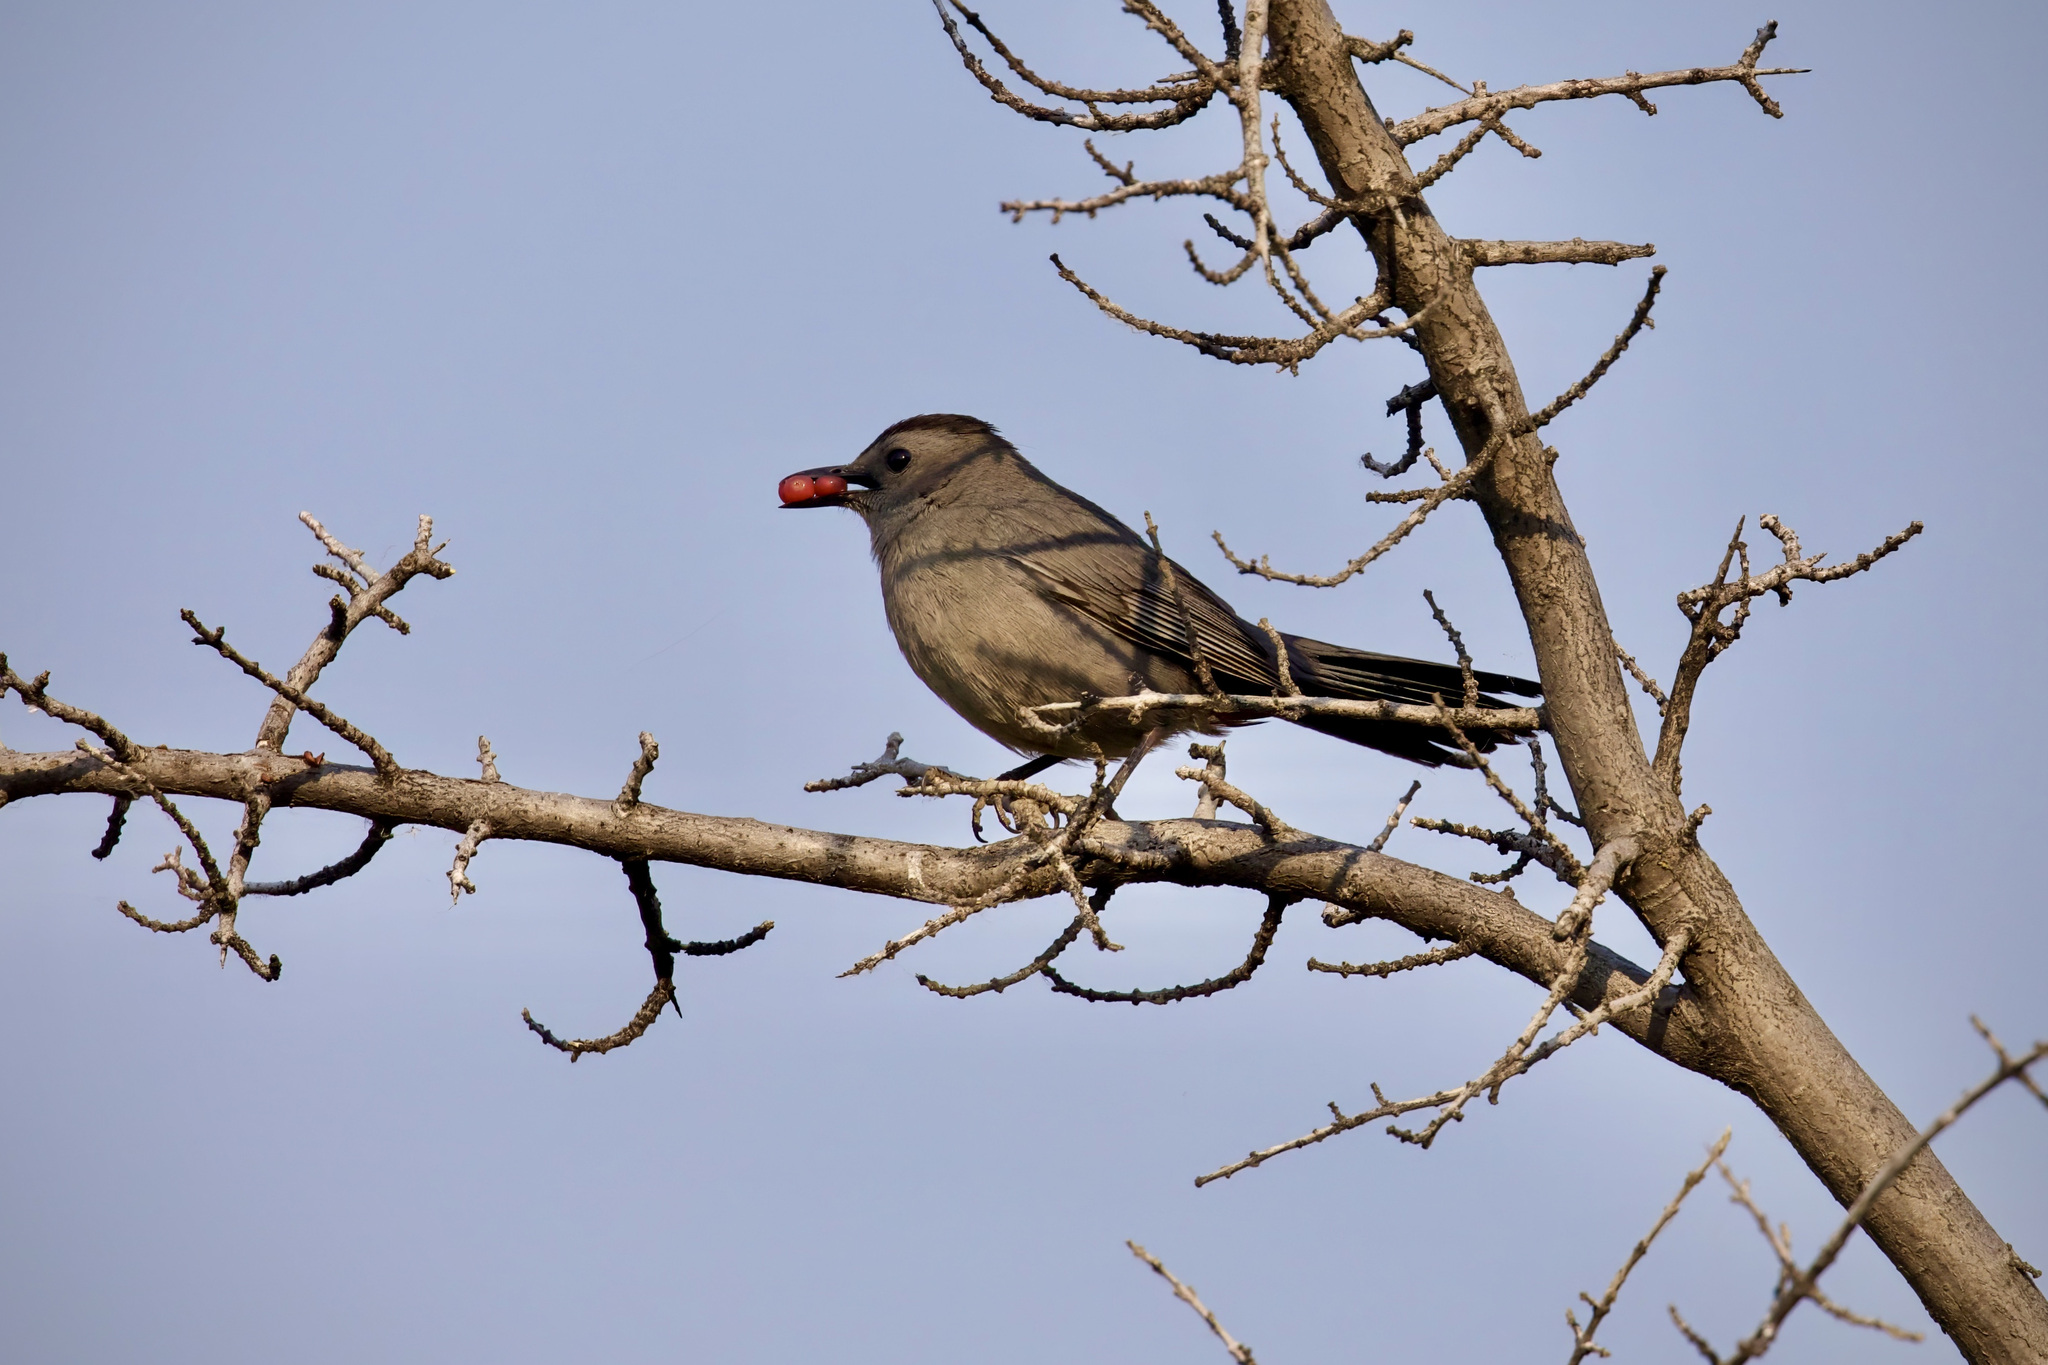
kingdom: Animalia
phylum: Chordata
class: Aves
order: Passeriformes
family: Mimidae
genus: Dumetella
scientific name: Dumetella carolinensis
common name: Gray catbird
